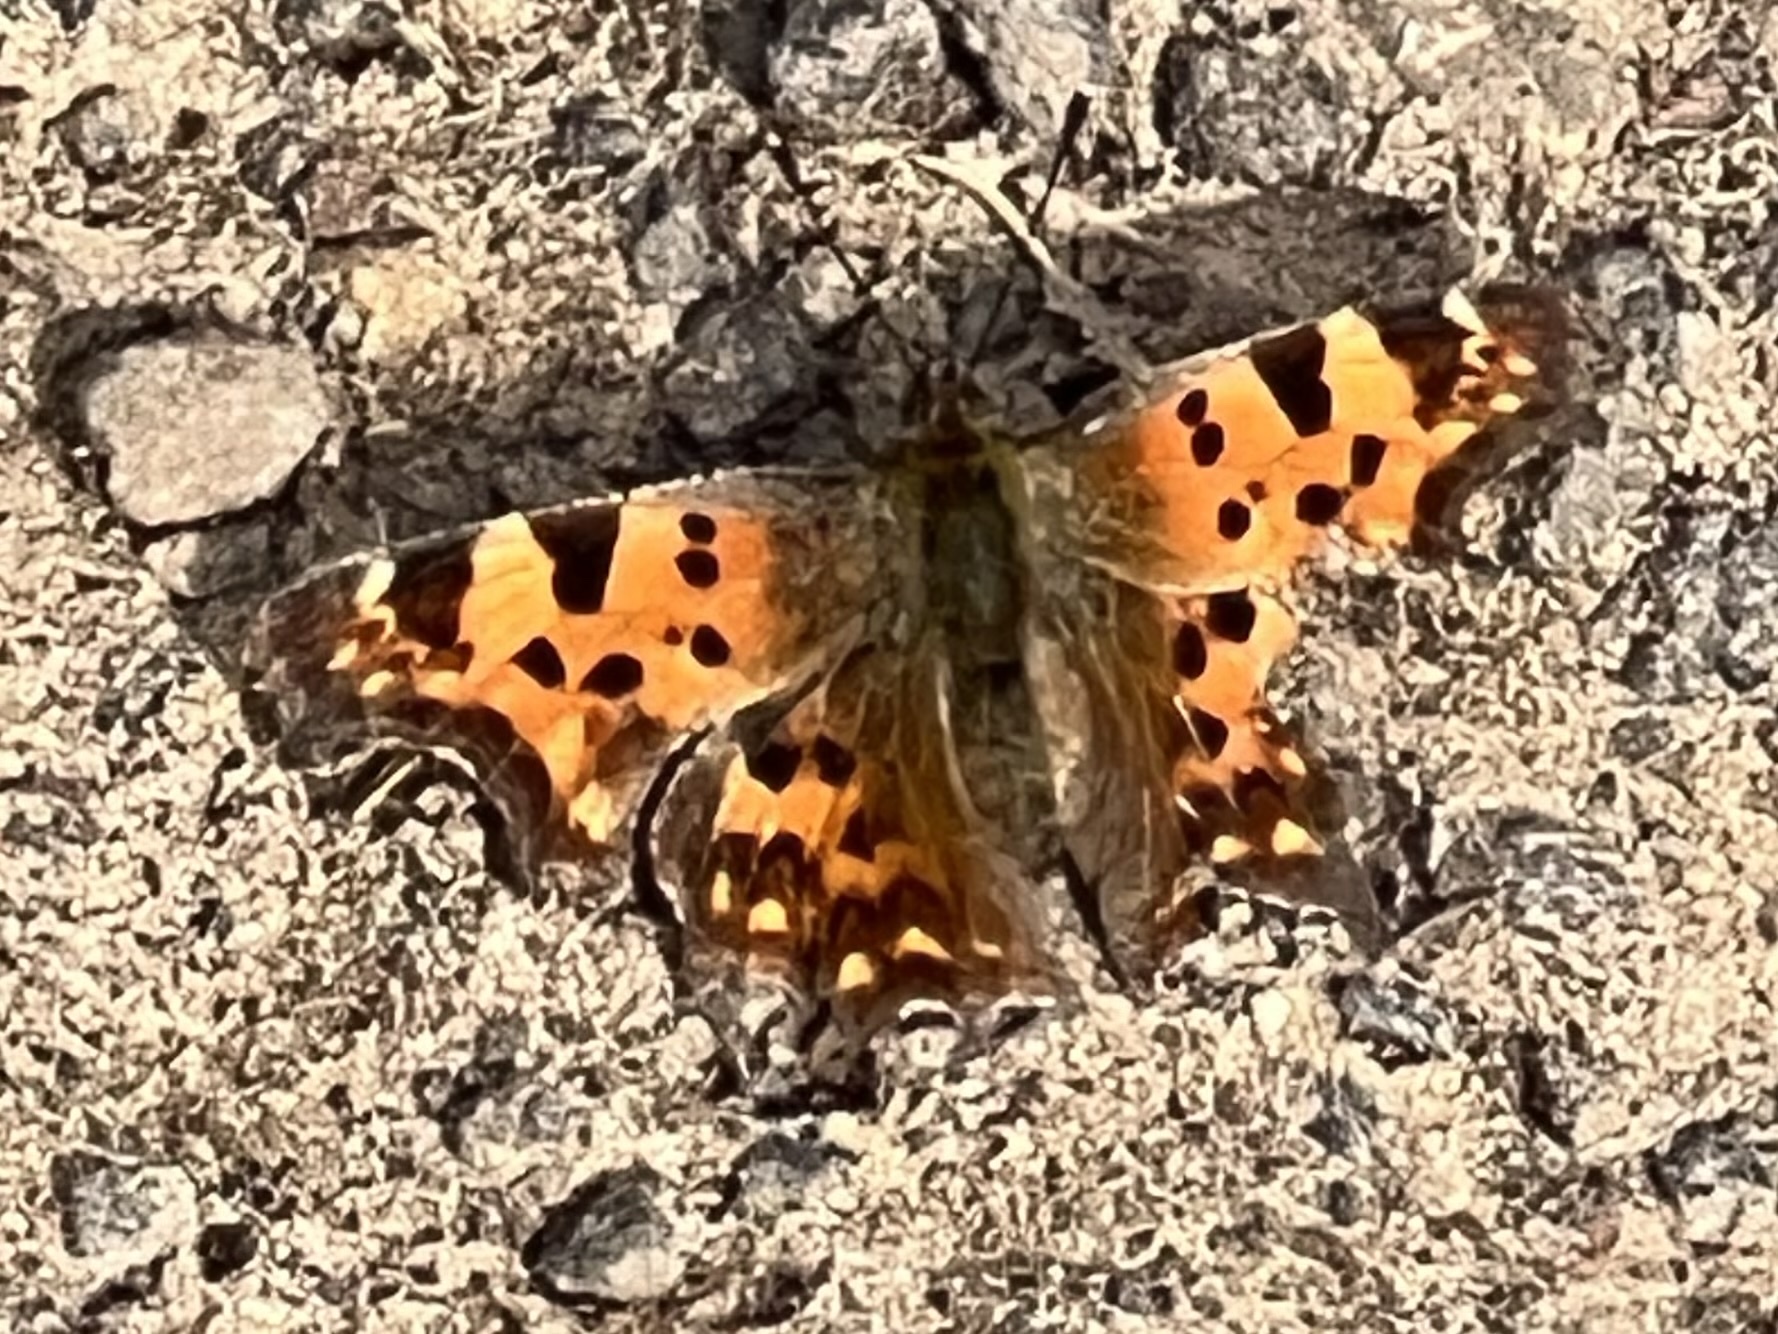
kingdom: Animalia
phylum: Arthropoda
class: Insecta
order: Lepidoptera
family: Nymphalidae
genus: Polygonia
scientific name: Polygonia c-album
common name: Comma
